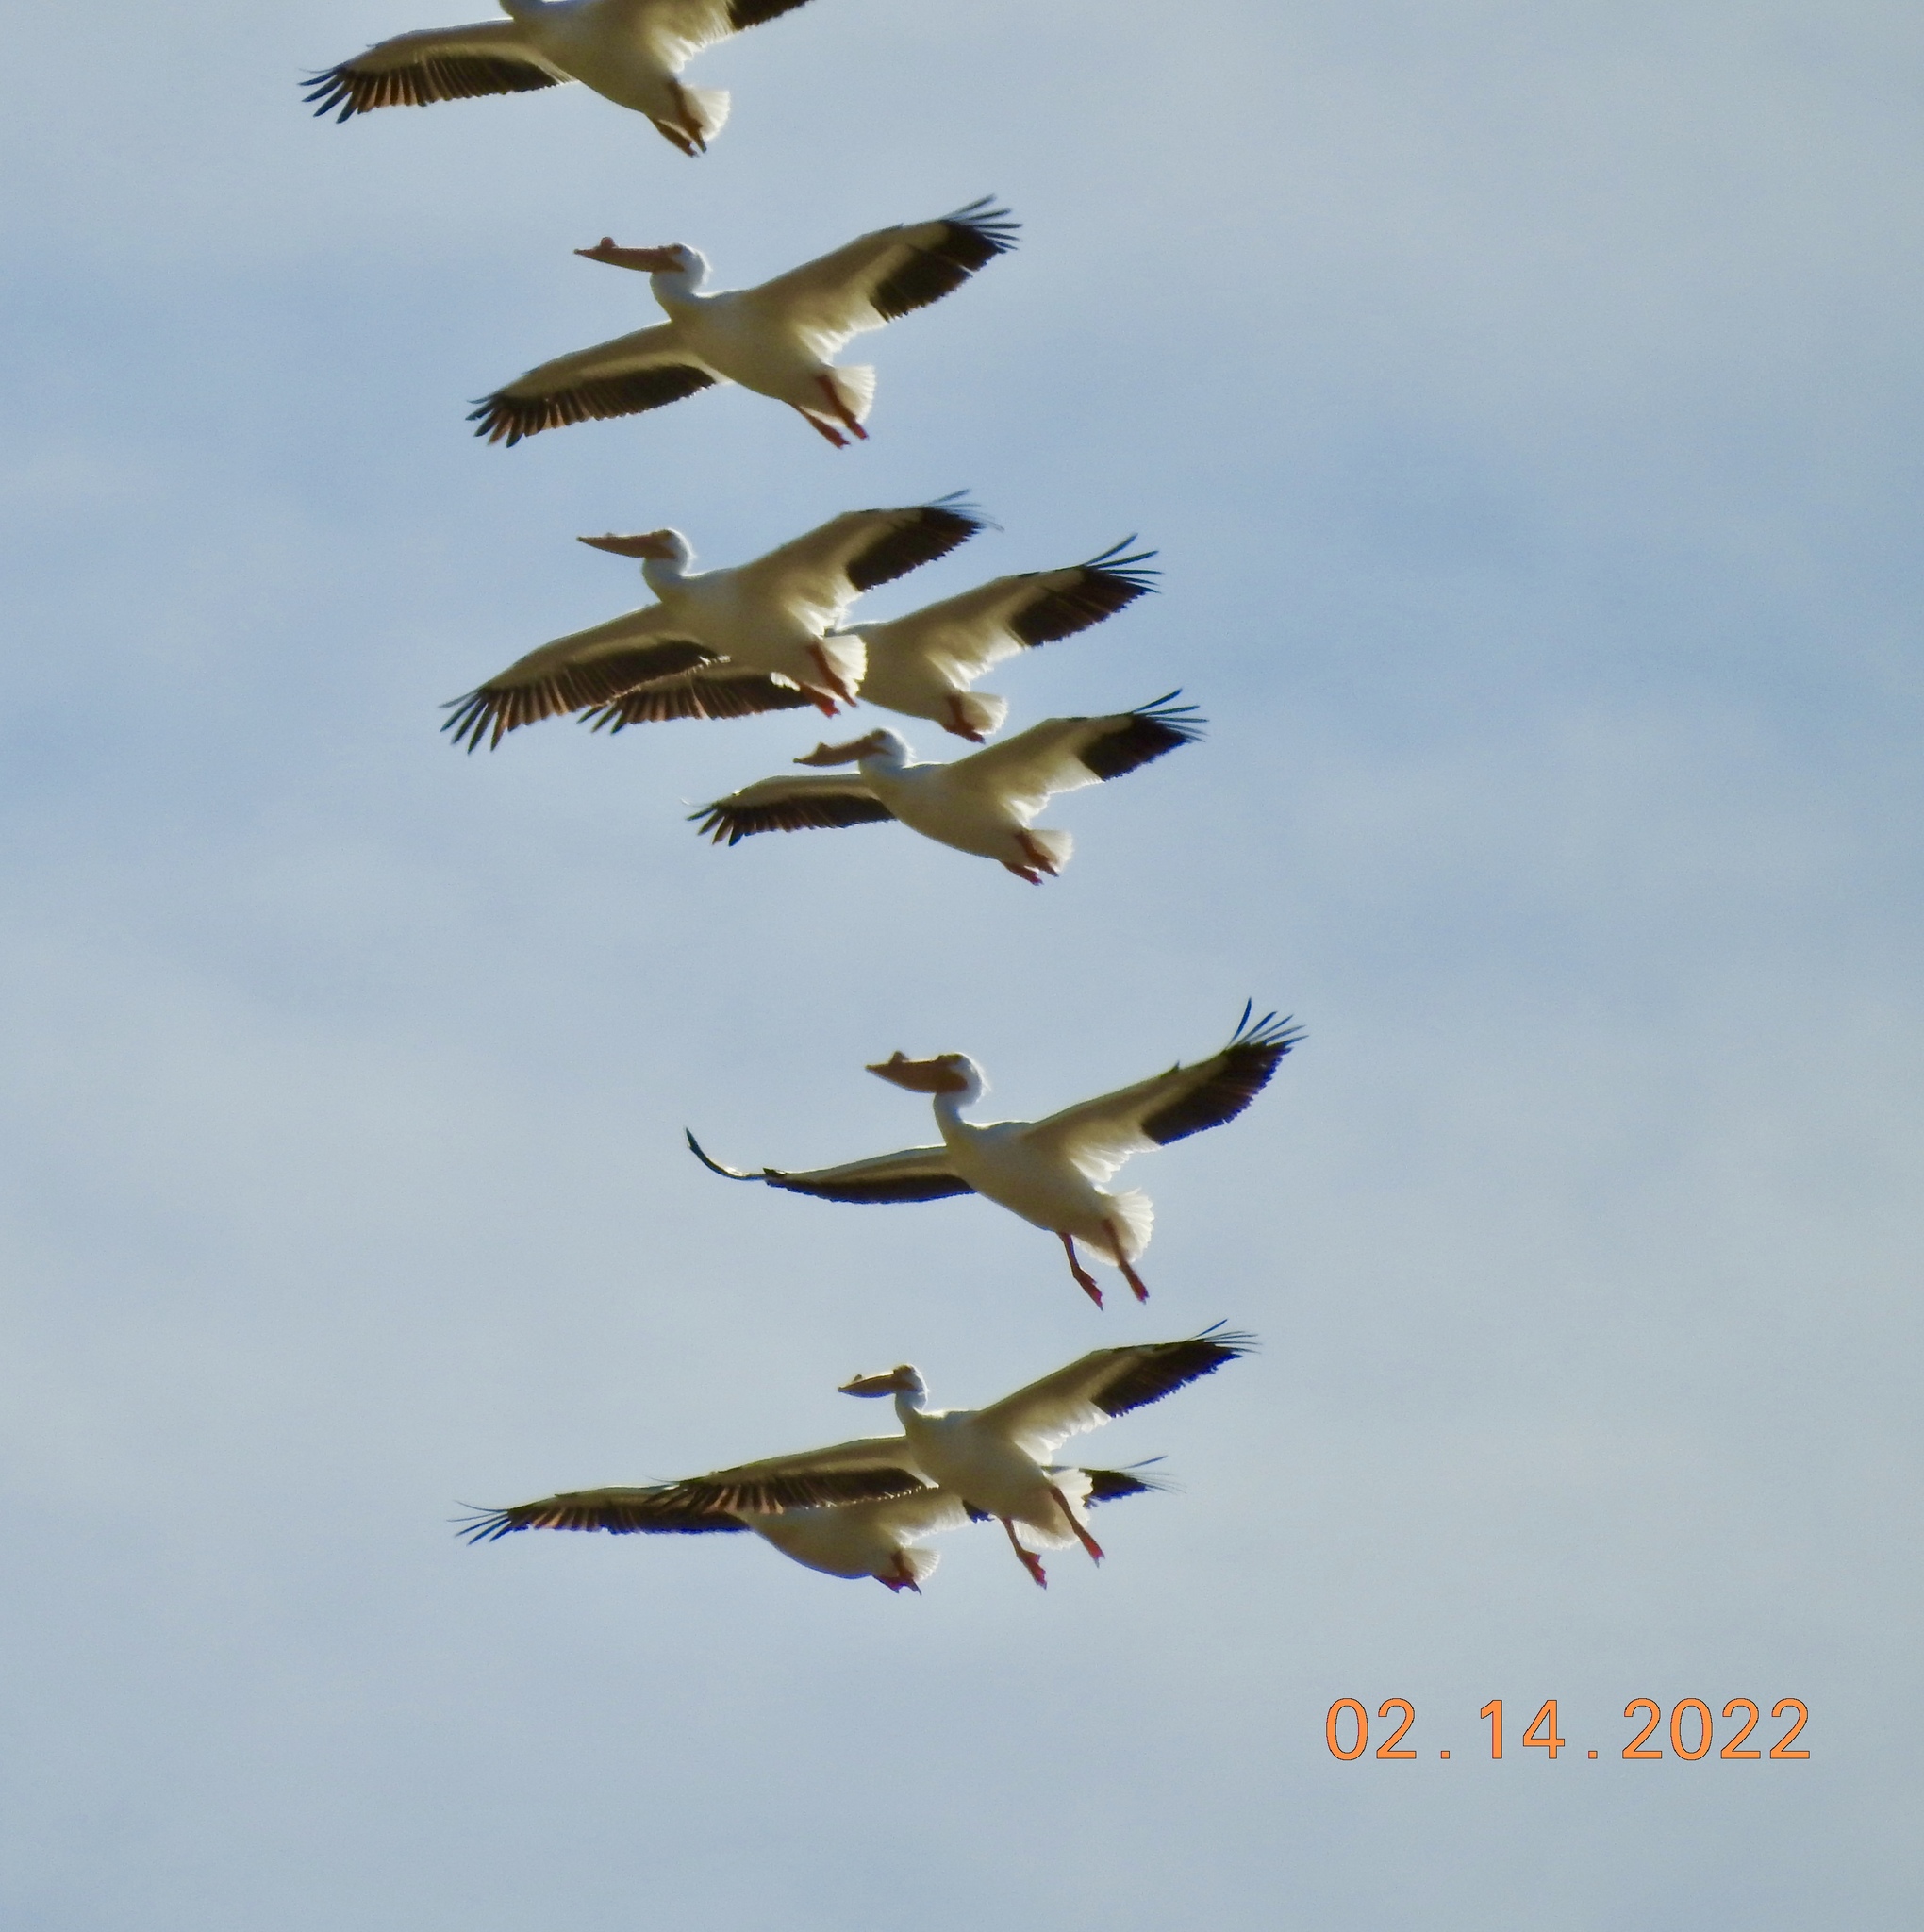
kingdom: Animalia
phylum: Chordata
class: Aves
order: Pelecaniformes
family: Pelecanidae
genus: Pelecanus
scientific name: Pelecanus erythrorhynchos
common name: American white pelican
